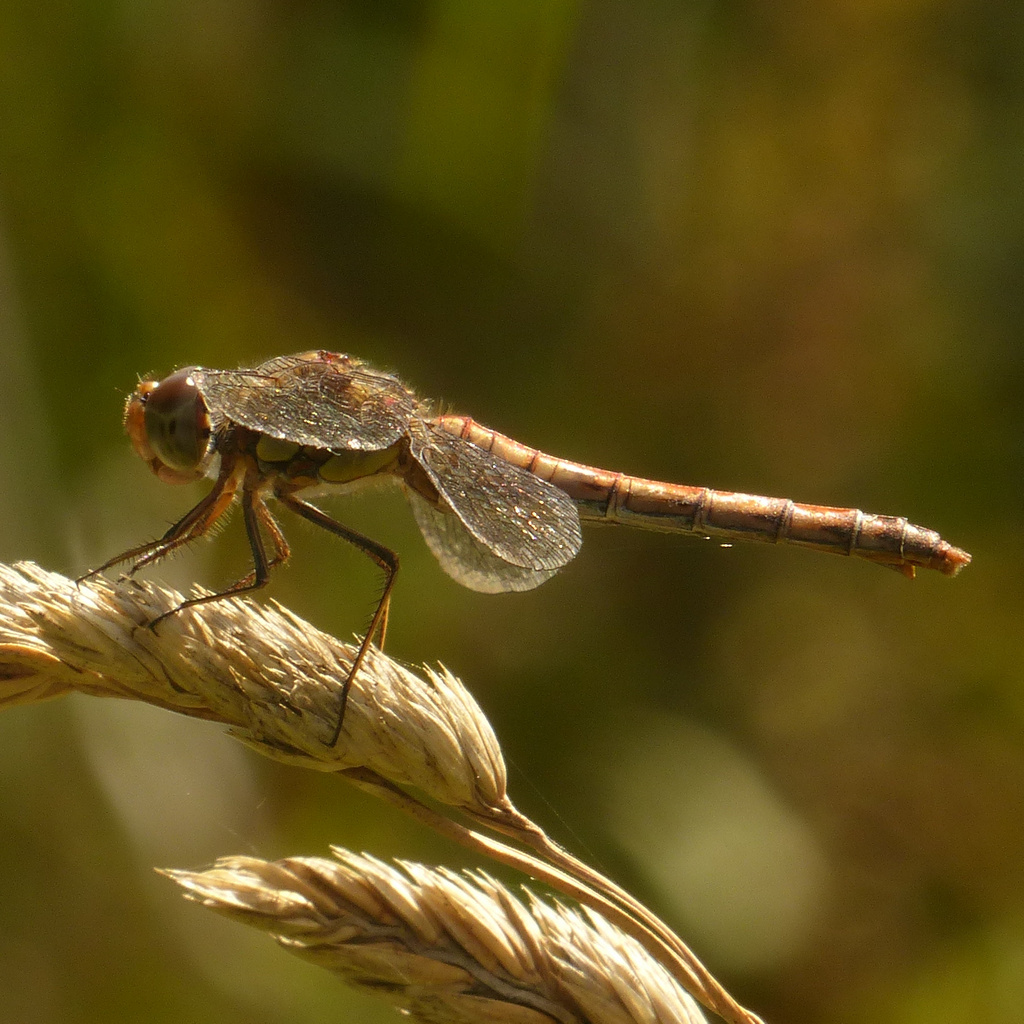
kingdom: Animalia
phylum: Arthropoda
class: Insecta
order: Odonata
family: Libellulidae
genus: Sympetrum
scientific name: Sympetrum striolatum
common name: Common darter
